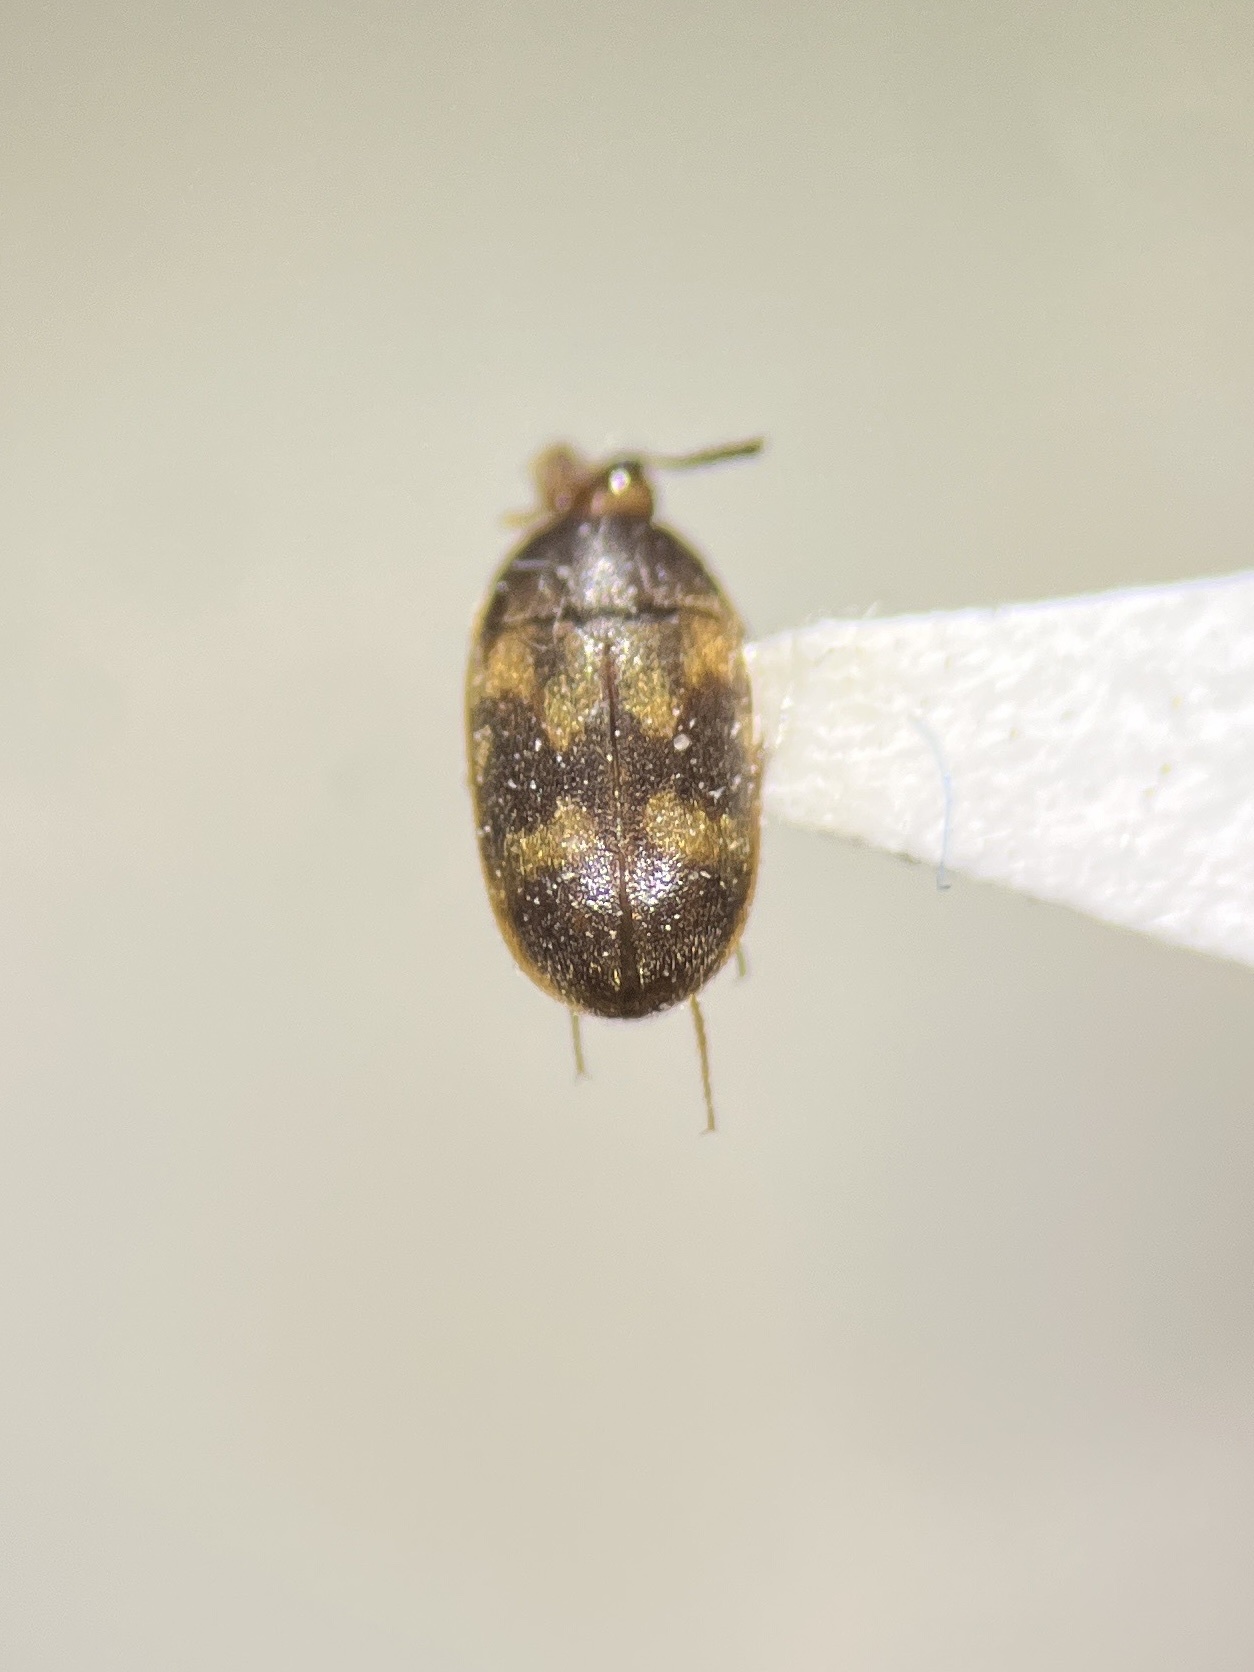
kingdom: Animalia
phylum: Arthropoda
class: Insecta
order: Coleoptera
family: Mycetophagidae
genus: Litargus
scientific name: Litargus balteatus
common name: Stored grain hairy fungus beetle
